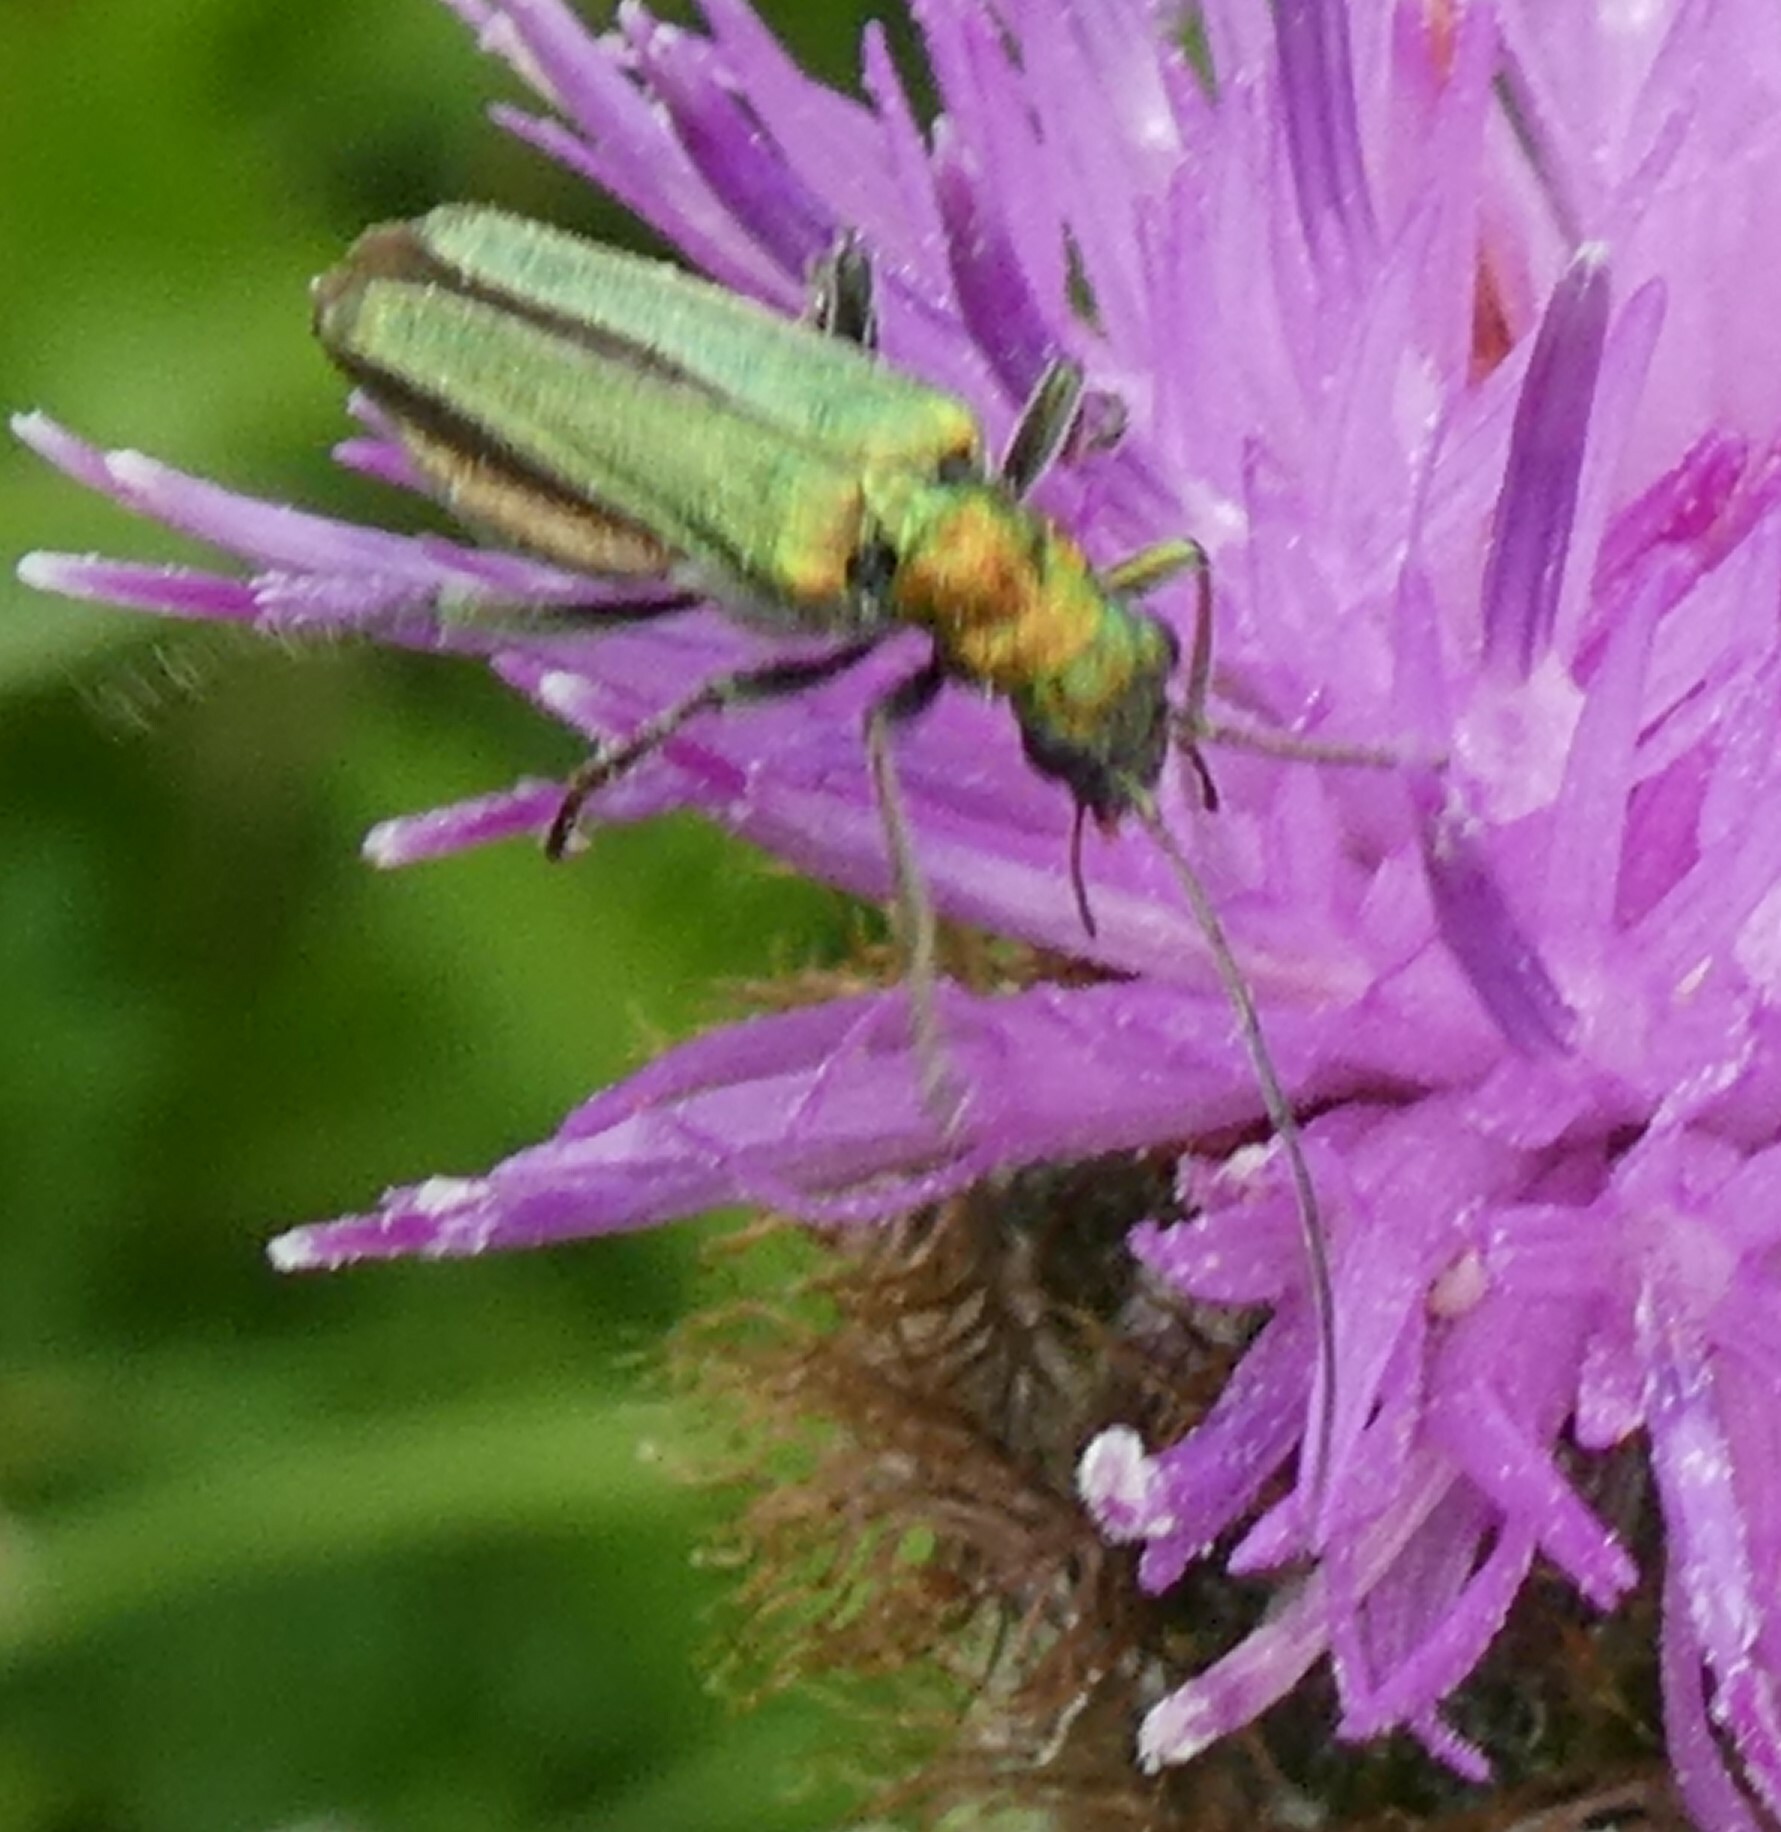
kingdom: Animalia
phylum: Arthropoda
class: Insecta
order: Coleoptera
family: Oedemeridae
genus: Oedemera
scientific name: Oedemera nobilis
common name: Swollen-thighed beetle
